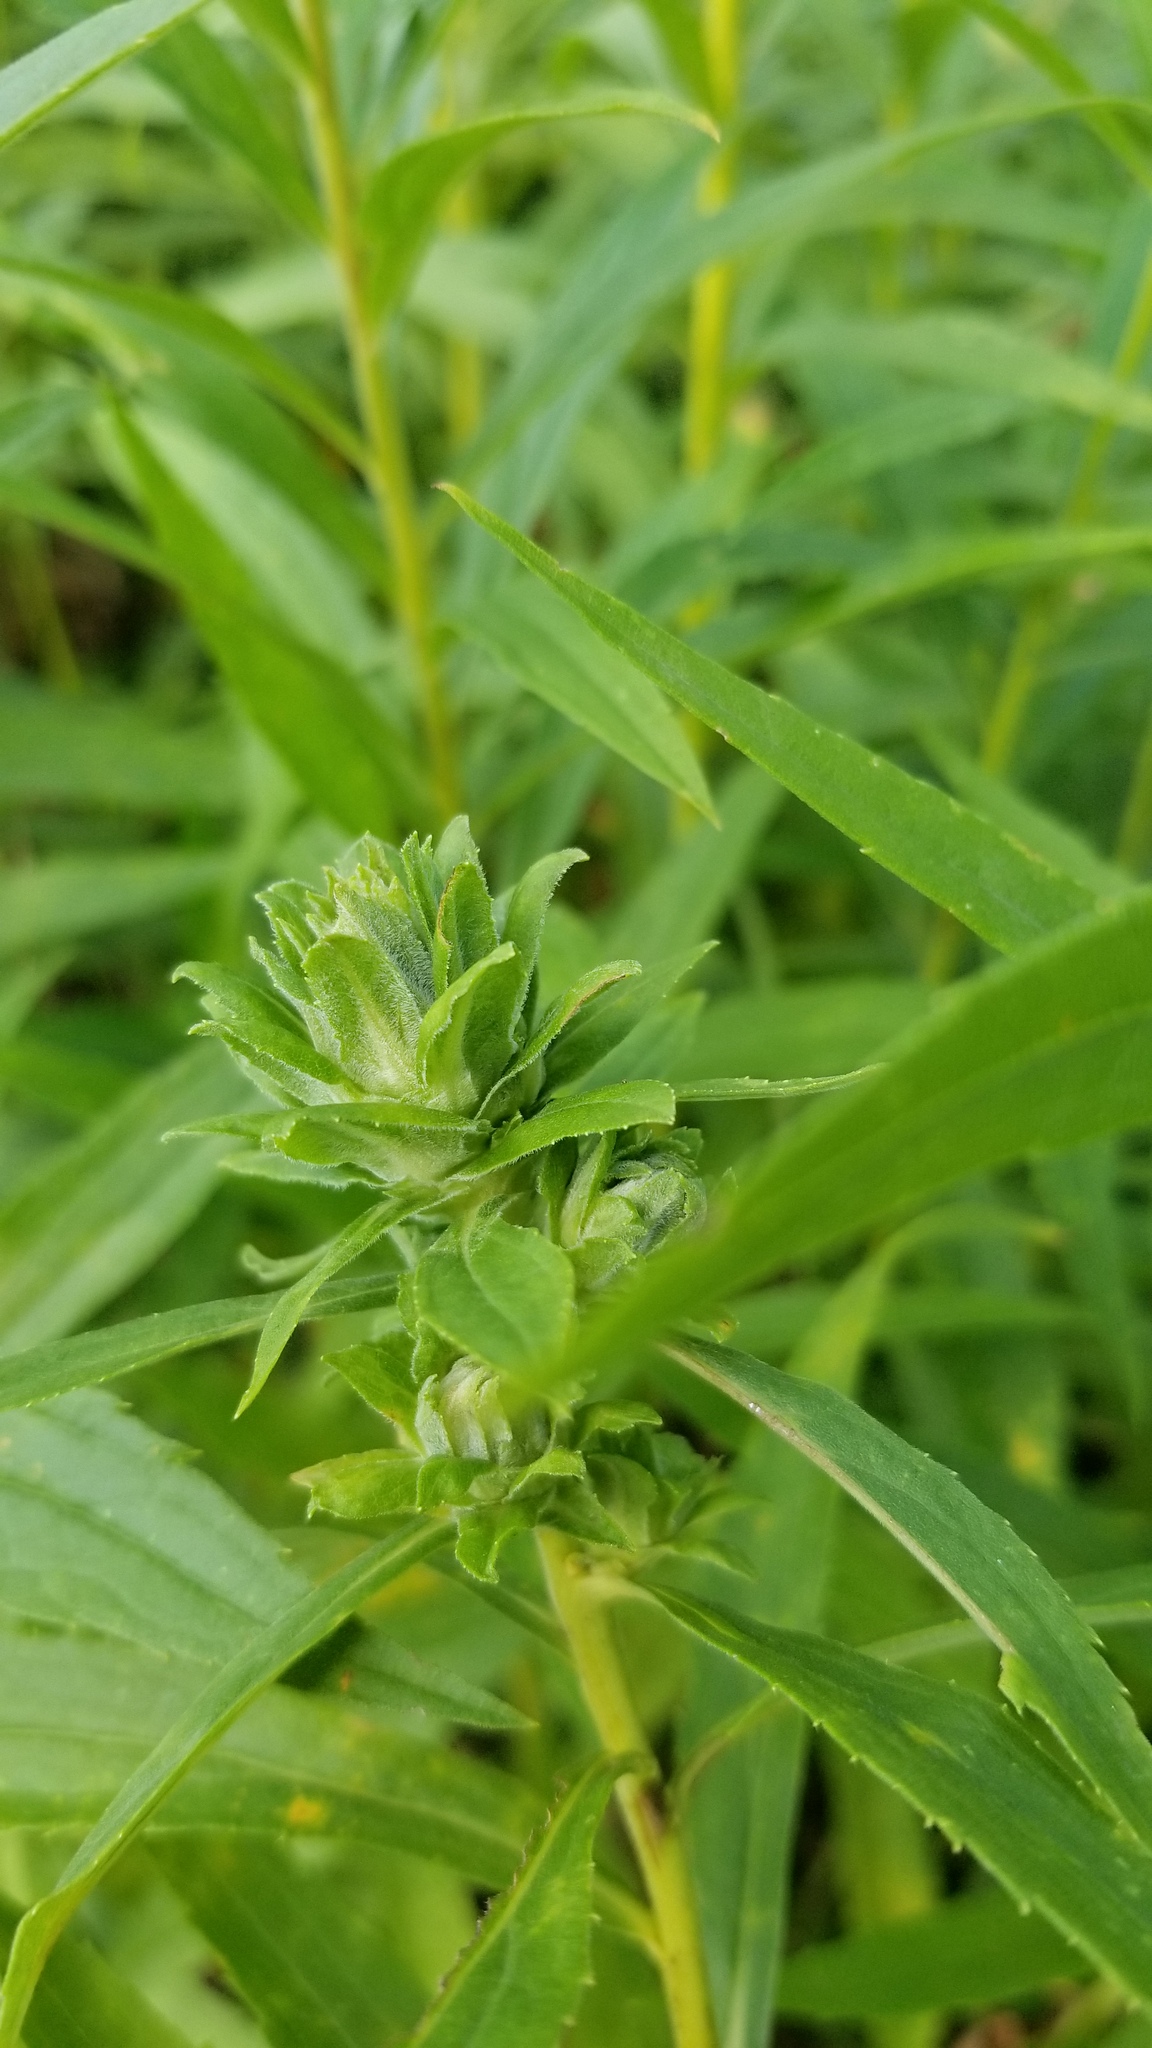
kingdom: Animalia
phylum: Arthropoda
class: Insecta
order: Diptera
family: Tephritidae
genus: Procecidochares
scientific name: Procecidochares atra
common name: Goldenrod brussels sprout gall fly
